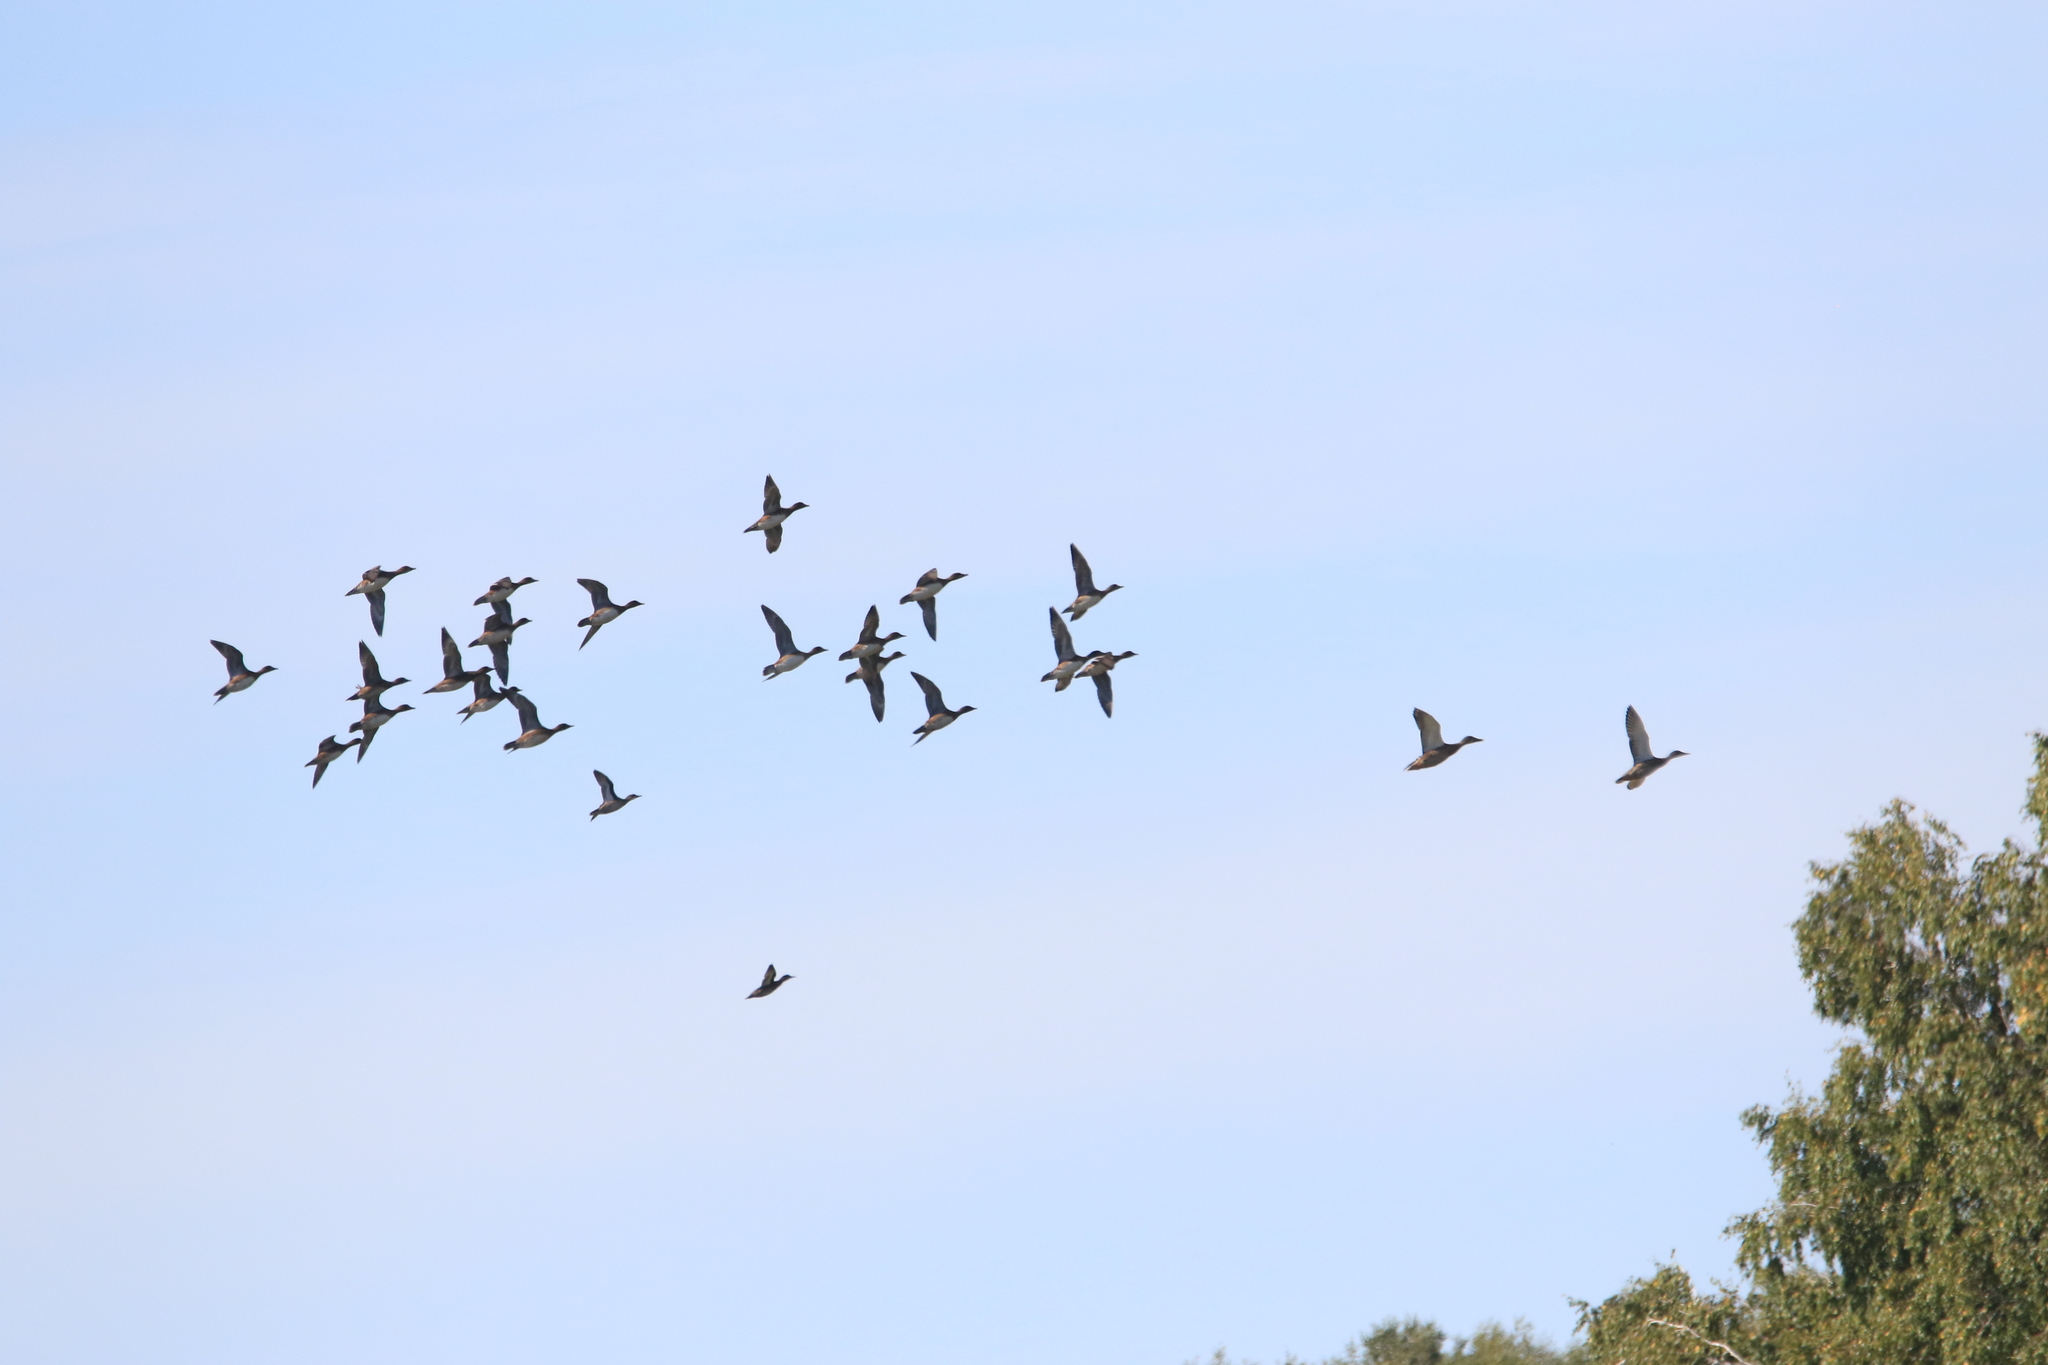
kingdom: Animalia
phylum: Chordata
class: Aves
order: Anseriformes
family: Anatidae
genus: Anas
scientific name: Anas platyrhynchos
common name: Mallard
